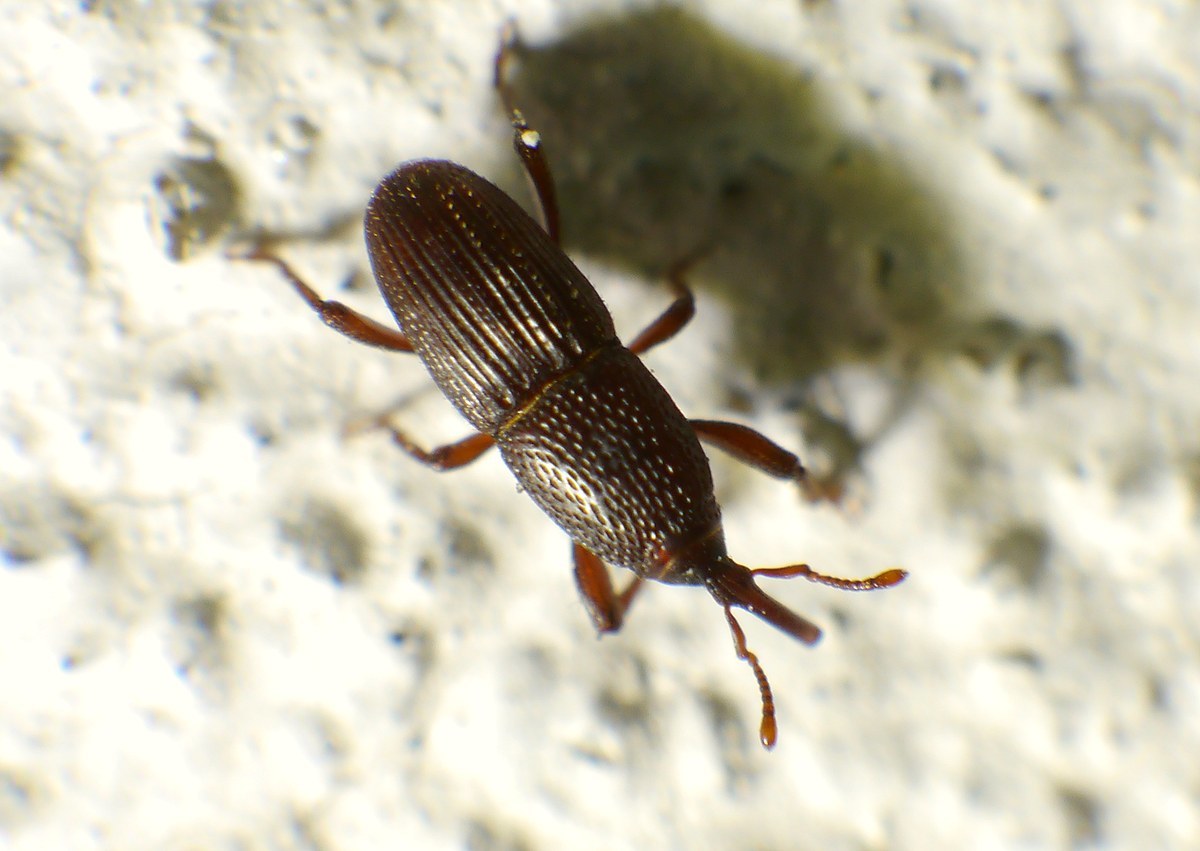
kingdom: Animalia
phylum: Arthropoda
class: Insecta
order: Coleoptera
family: Dryophthoridae
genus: Sitophilus
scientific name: Sitophilus granarius
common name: Granary weevil
